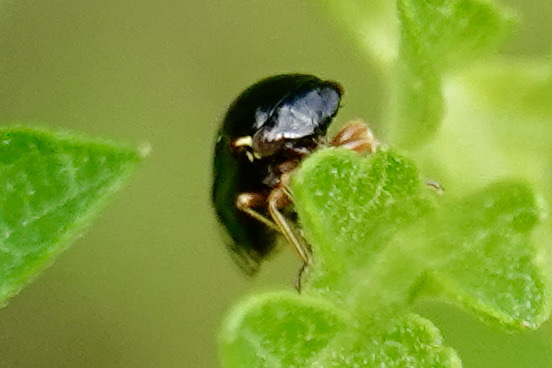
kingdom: Animalia
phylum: Arthropoda
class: Insecta
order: Hemiptera
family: Membracidae
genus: Acutalis
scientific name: Acutalis tartarea
